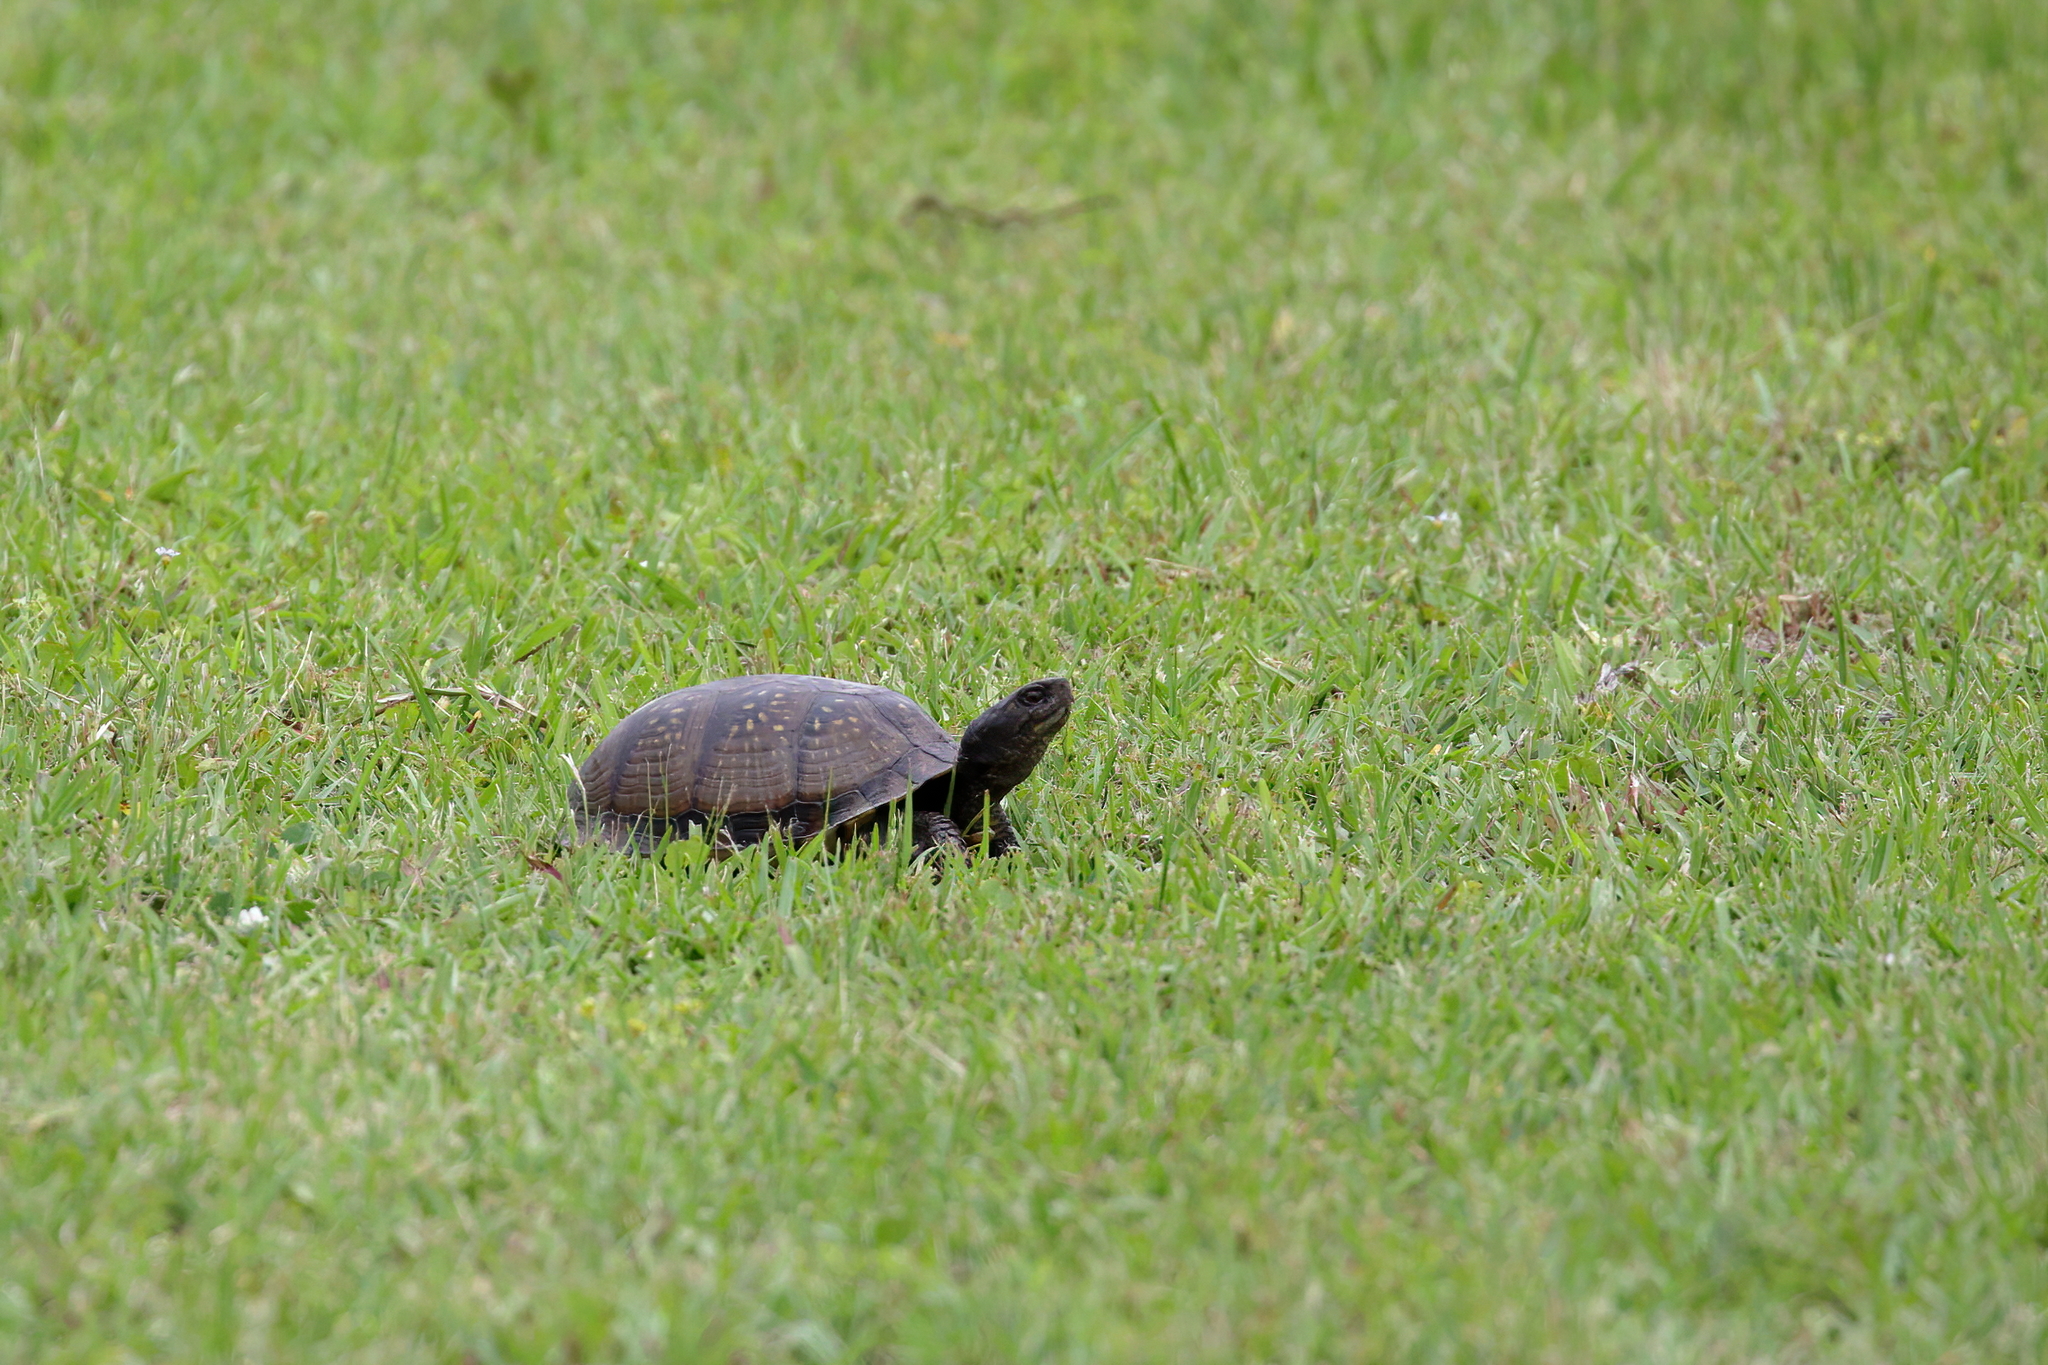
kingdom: Animalia
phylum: Chordata
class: Testudines
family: Emydidae
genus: Terrapene
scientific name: Terrapene carolina
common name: Common box turtle
